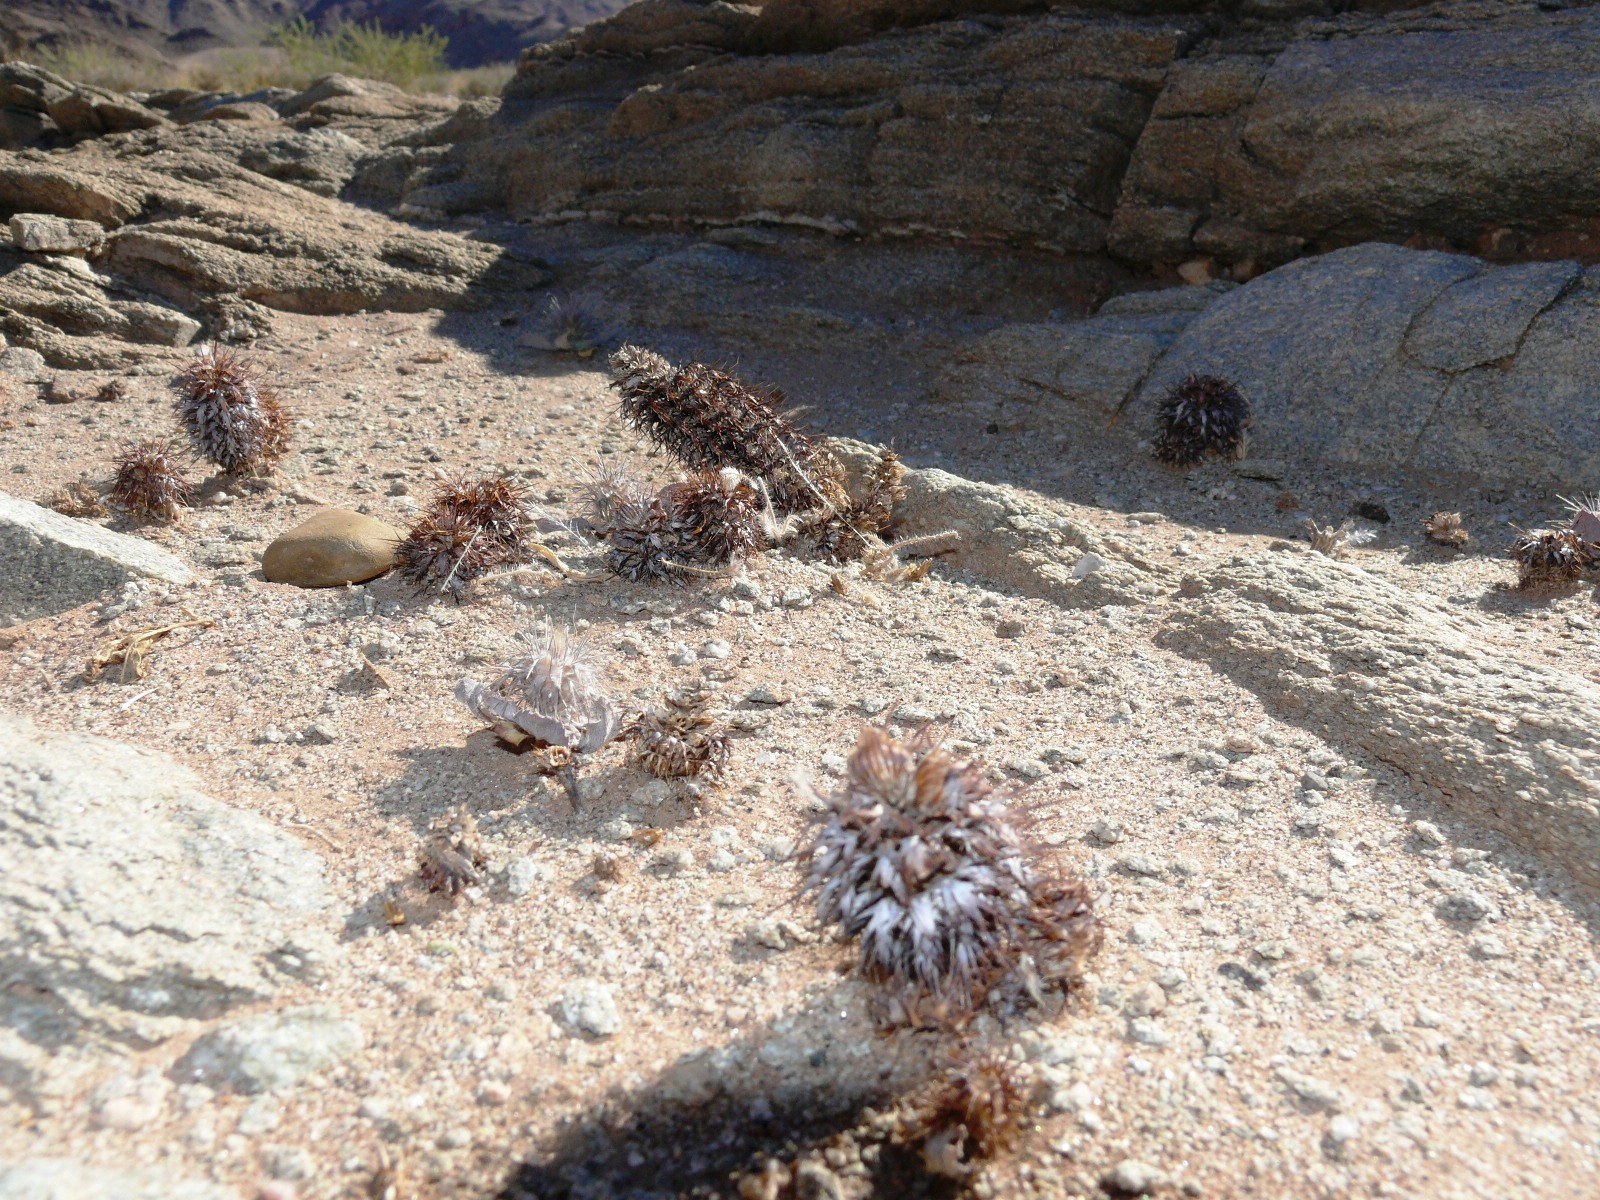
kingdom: Plantae
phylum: Tracheophyta
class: Magnoliopsida
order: Lamiales
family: Acanthaceae
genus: Acanthopsis
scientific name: Acanthopsis disperma
